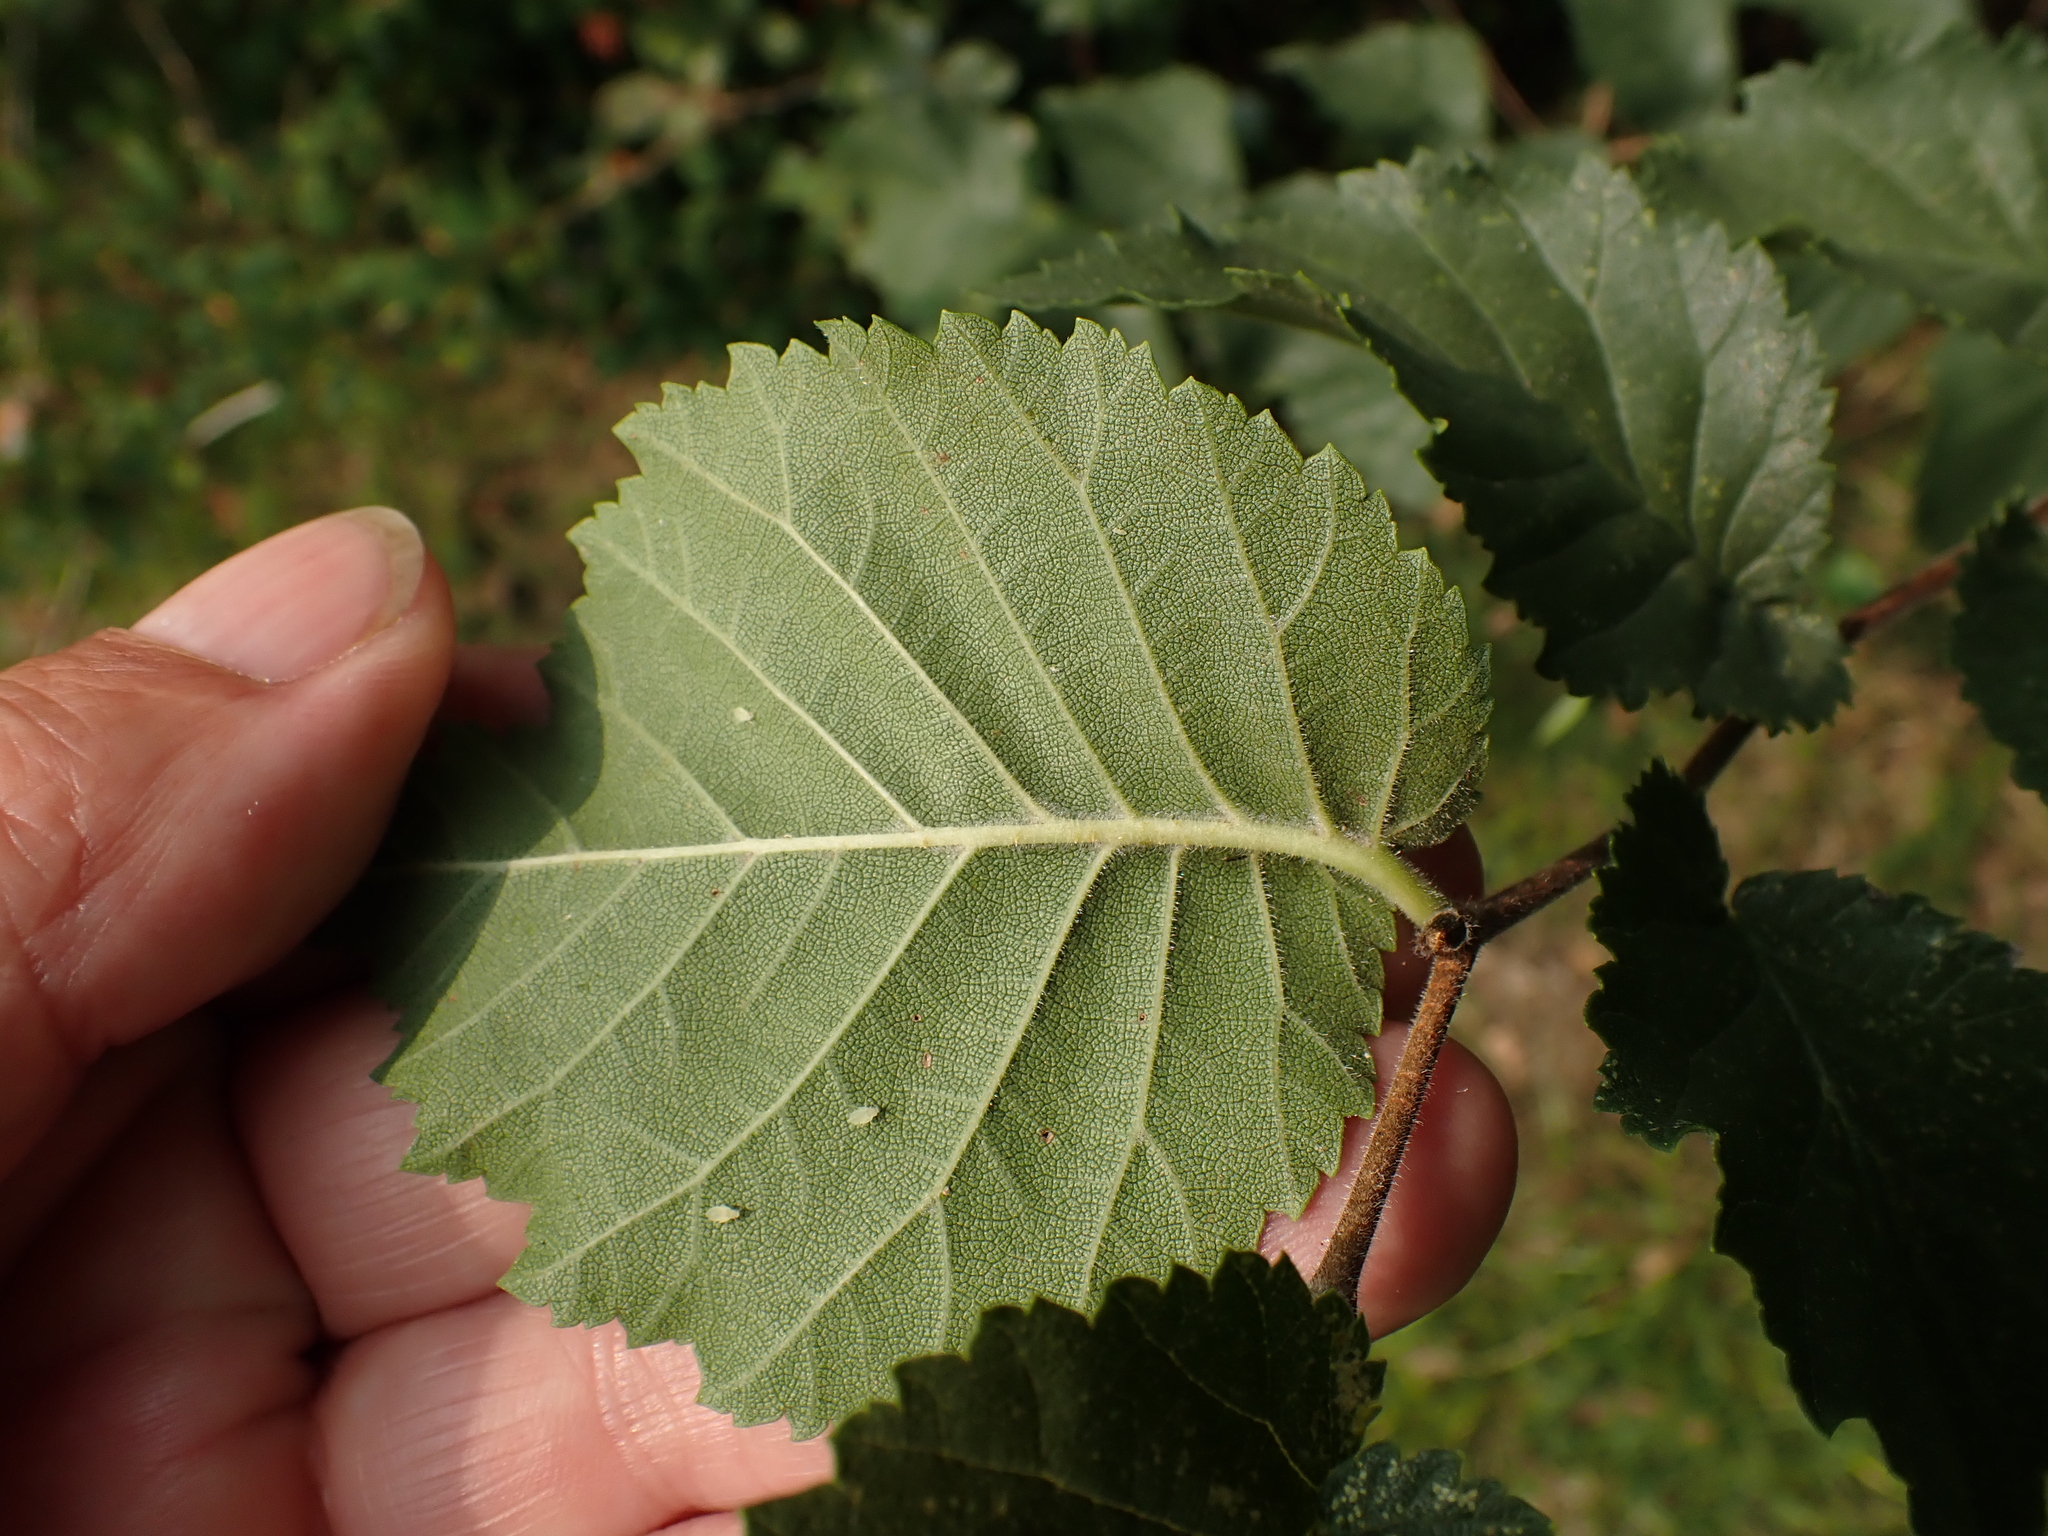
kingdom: Plantae
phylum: Tracheophyta
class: Magnoliopsida
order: Rosales
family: Ulmaceae
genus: Ulmus
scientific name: Ulmus minor
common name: Small-leaved elm
